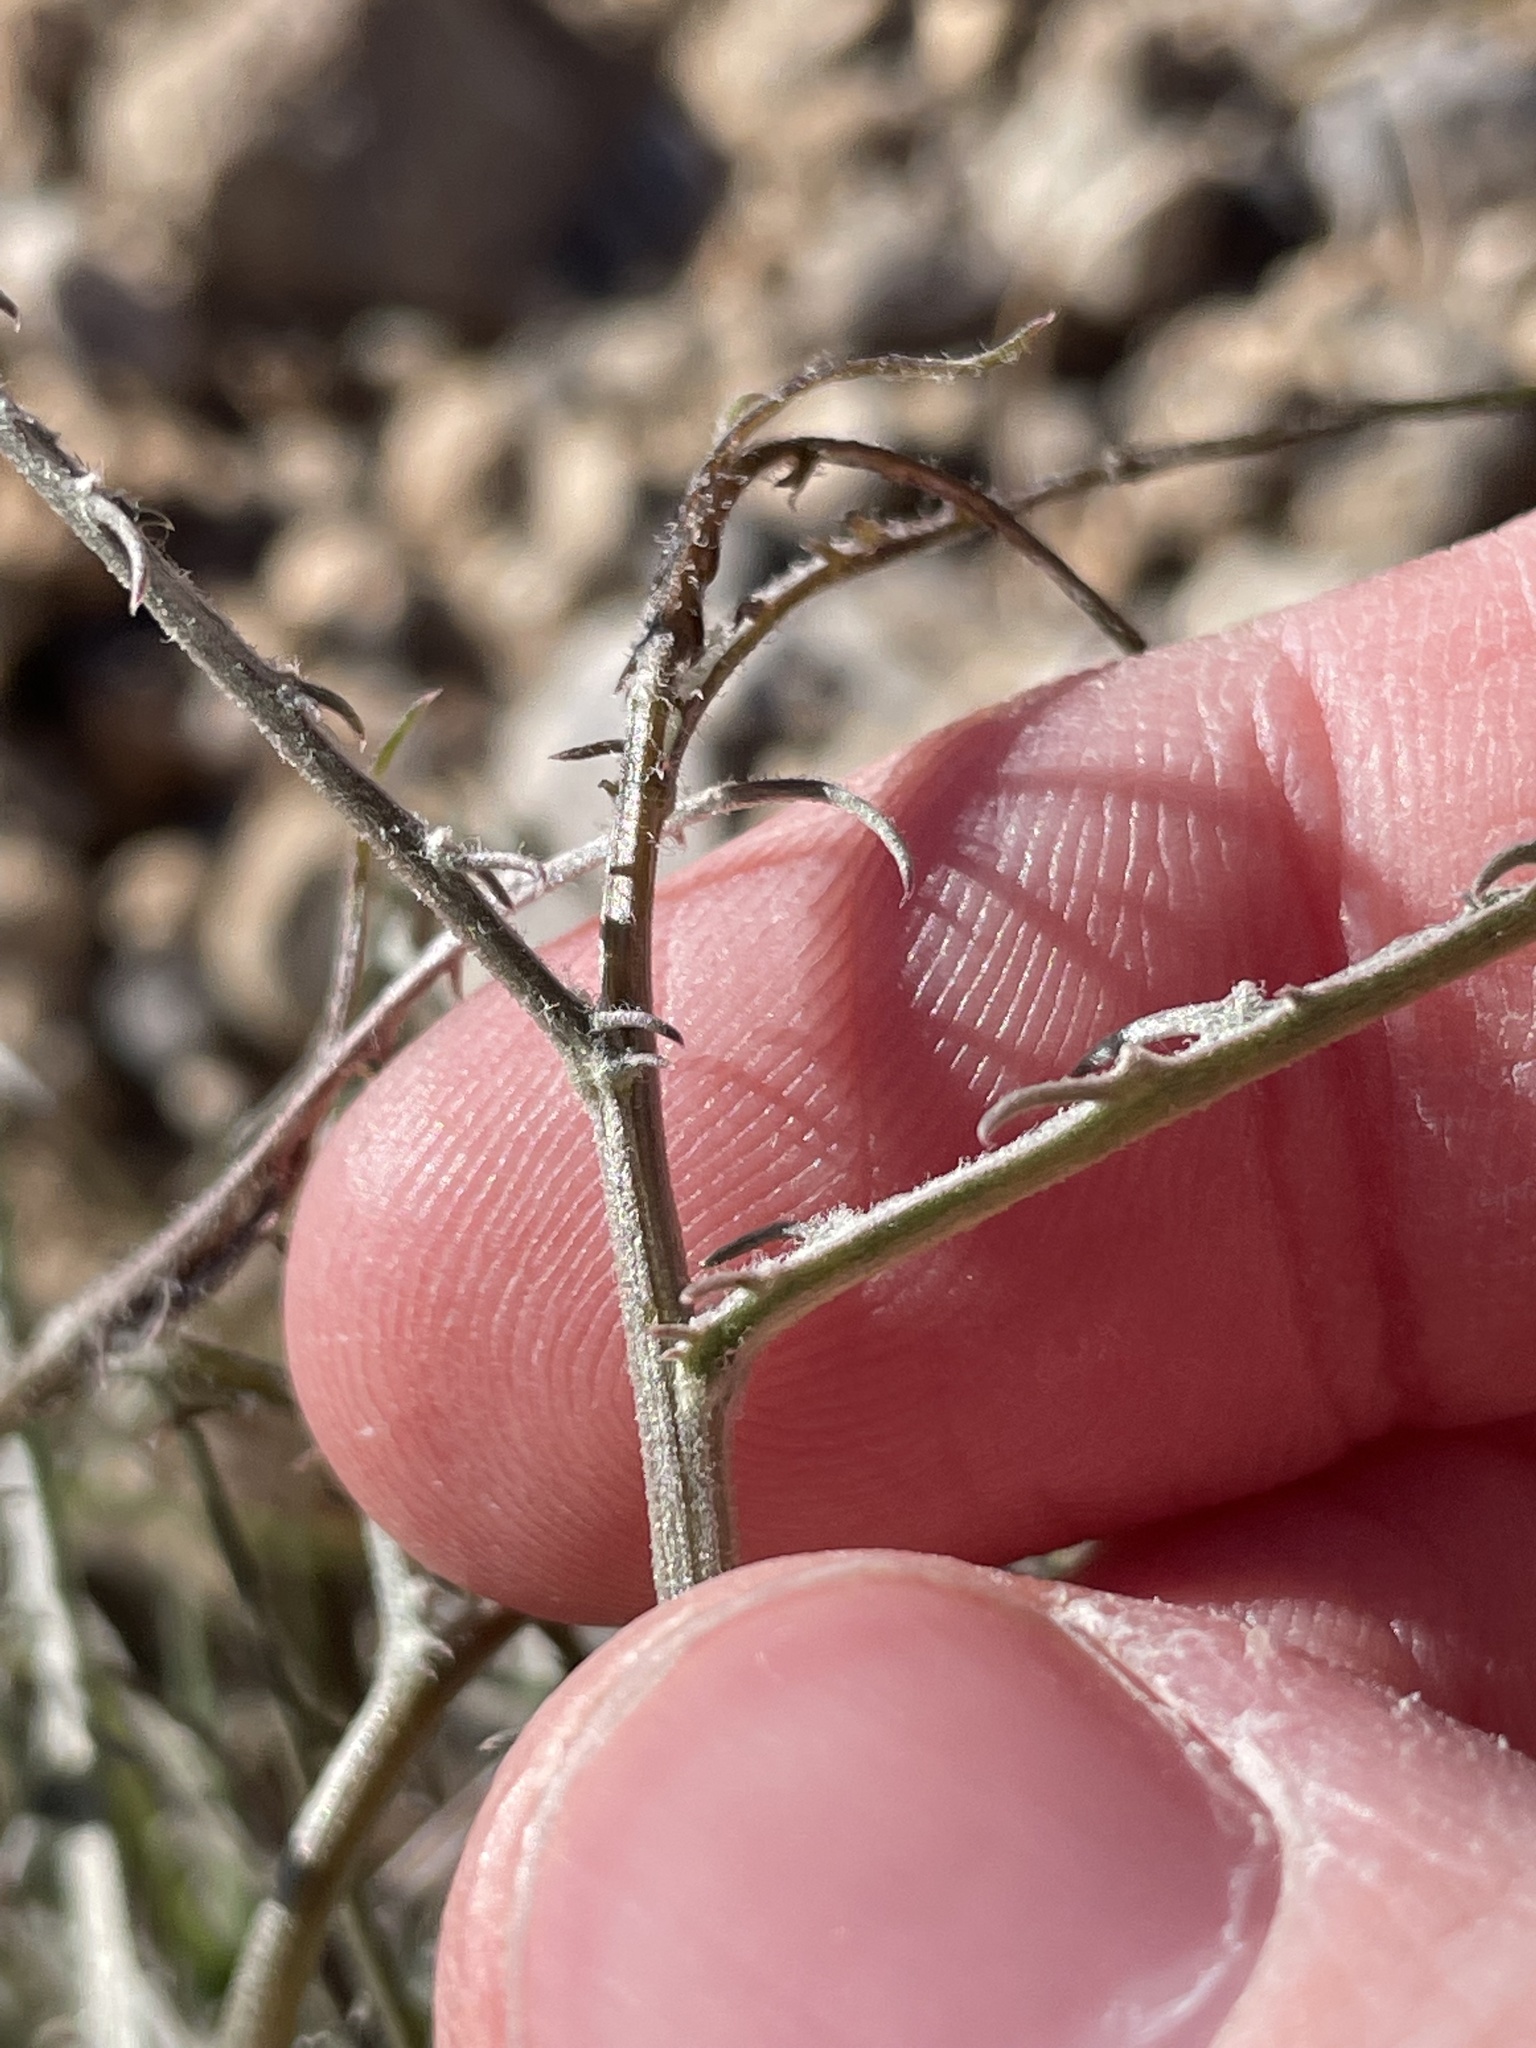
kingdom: Plantae
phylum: Tracheophyta
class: Magnoliopsida
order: Asterales
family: Asteraceae
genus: Stephanomeria
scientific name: Stephanomeria pauciflora
